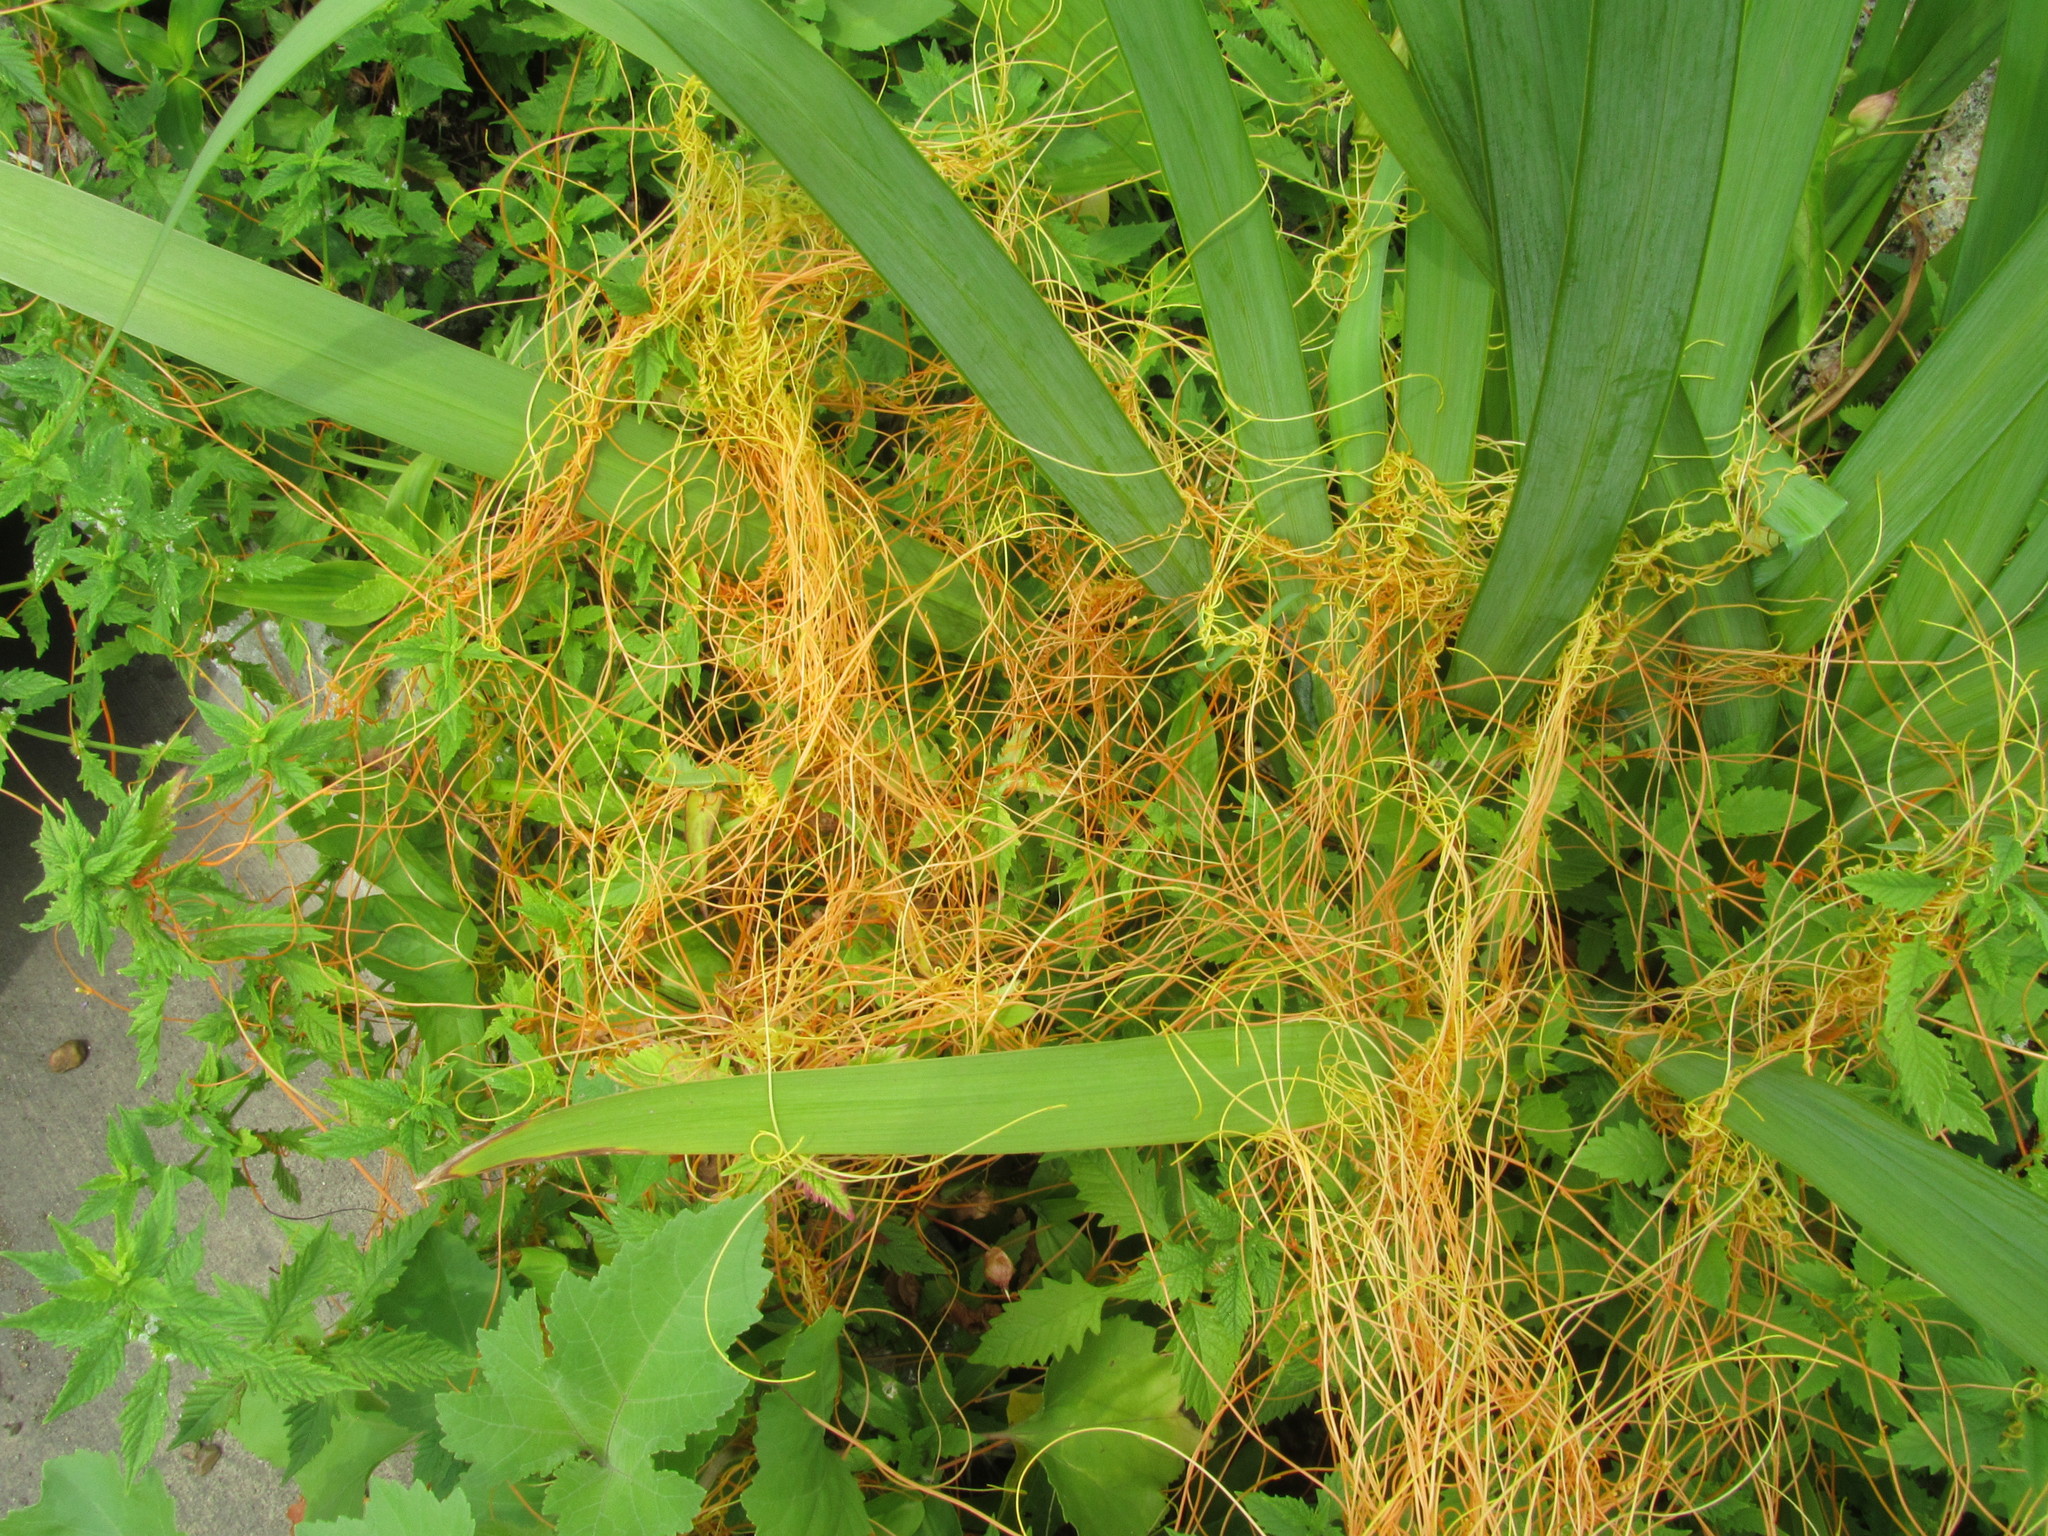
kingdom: Plantae
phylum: Tracheophyta
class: Magnoliopsida
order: Solanales
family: Convolvulaceae
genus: Cuscuta
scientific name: Cuscuta
